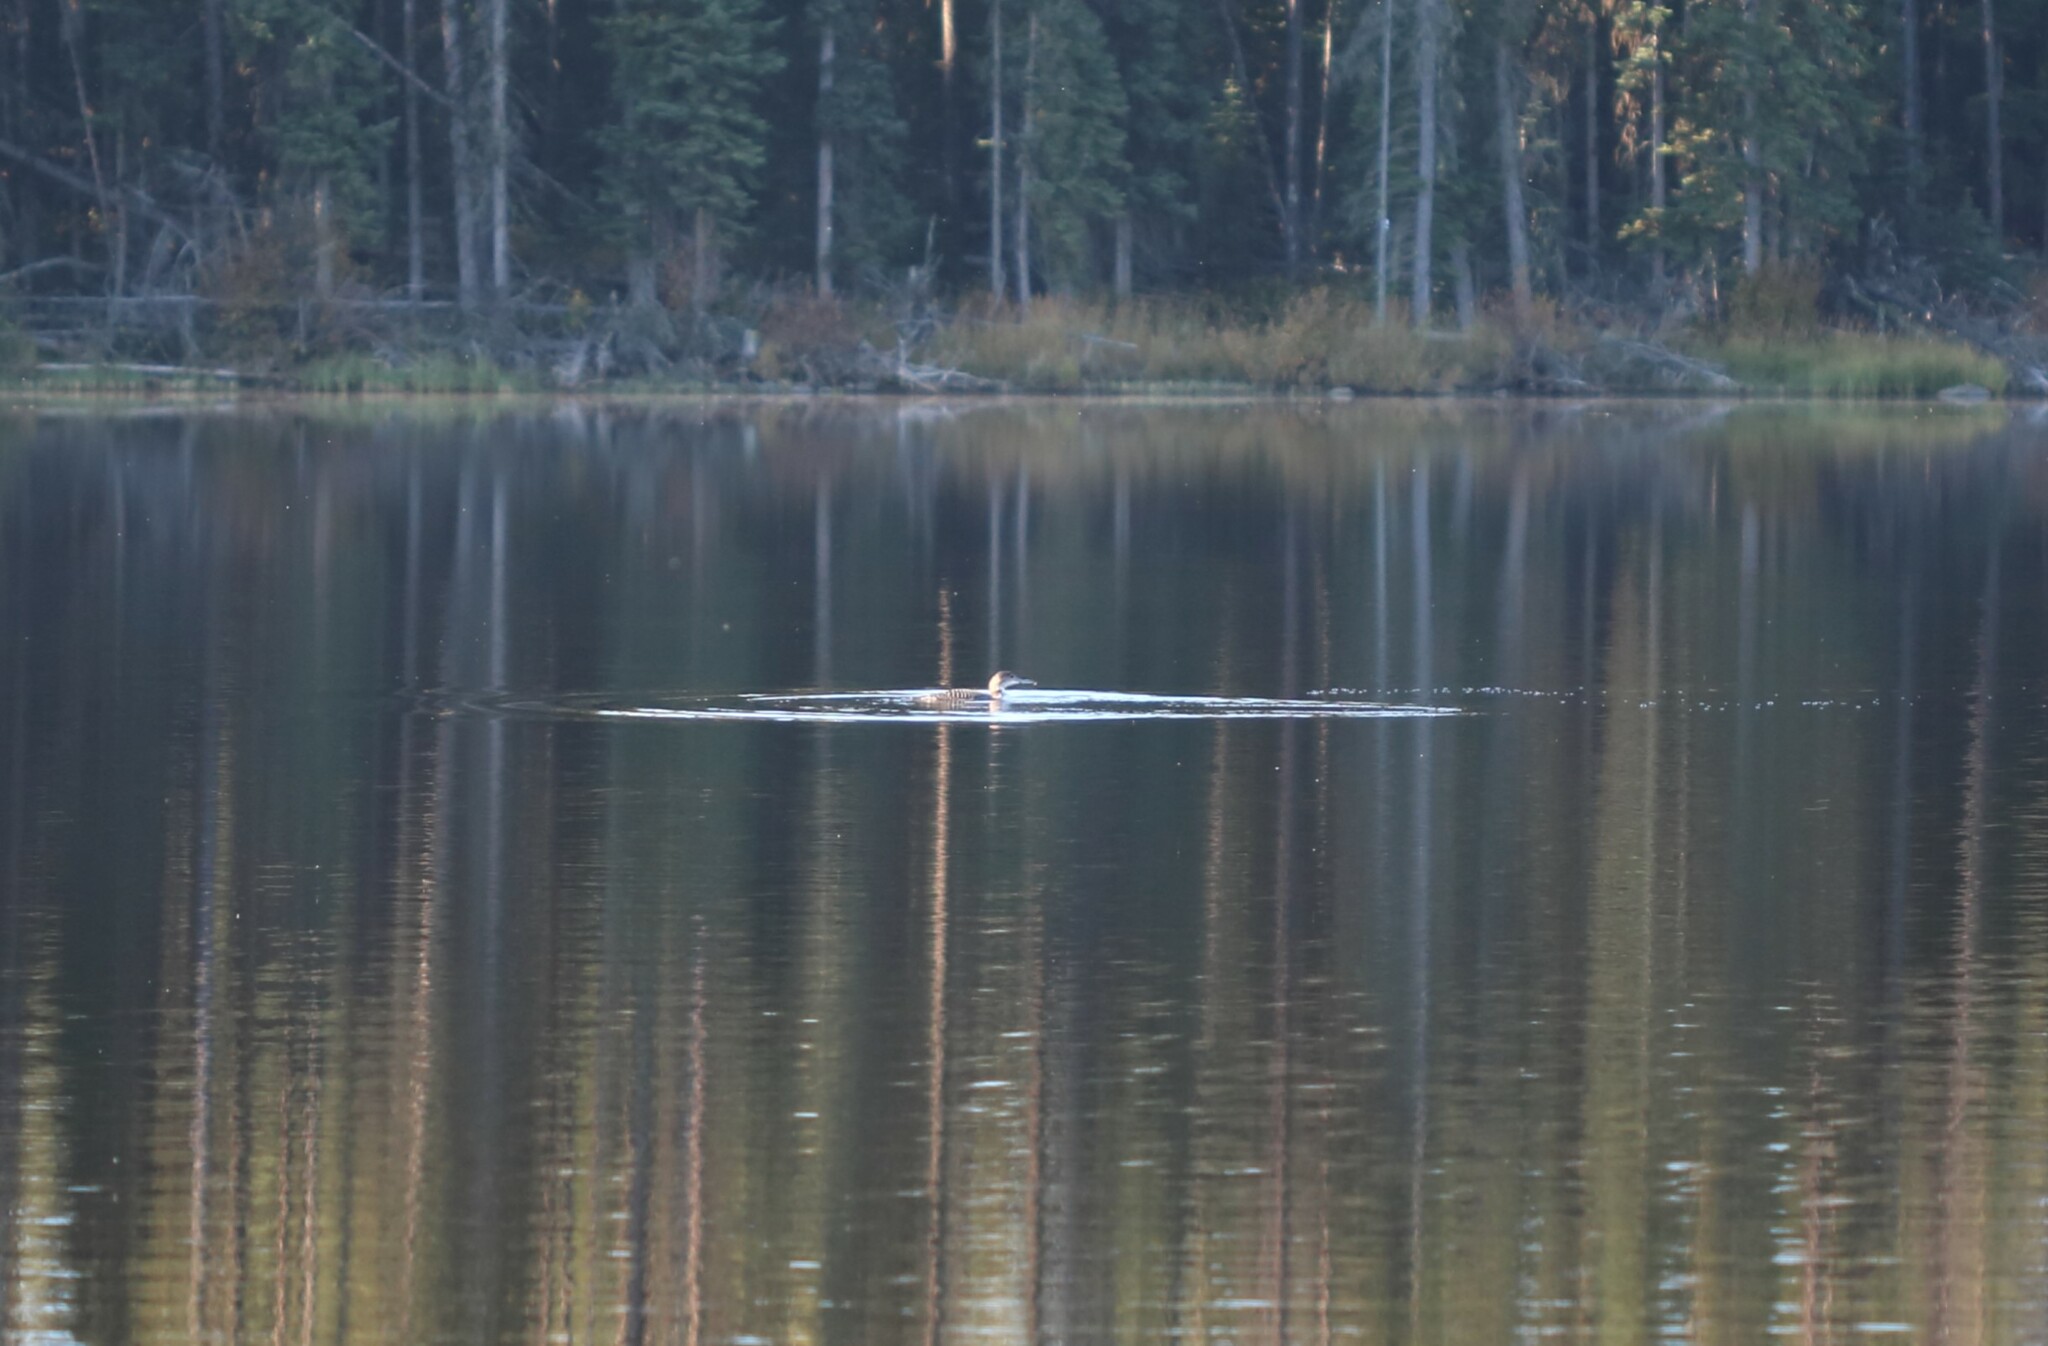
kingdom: Animalia
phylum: Chordata
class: Aves
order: Gaviiformes
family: Gaviidae
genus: Gavia
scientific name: Gavia immer
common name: Common loon
